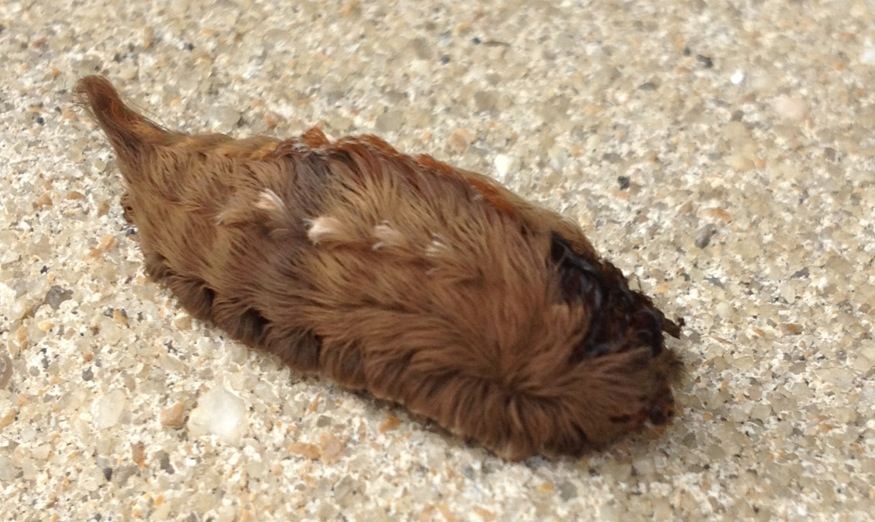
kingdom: Animalia
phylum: Arthropoda
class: Insecta
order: Lepidoptera
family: Megalopygidae
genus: Megalopyge
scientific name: Megalopyge opercularis
